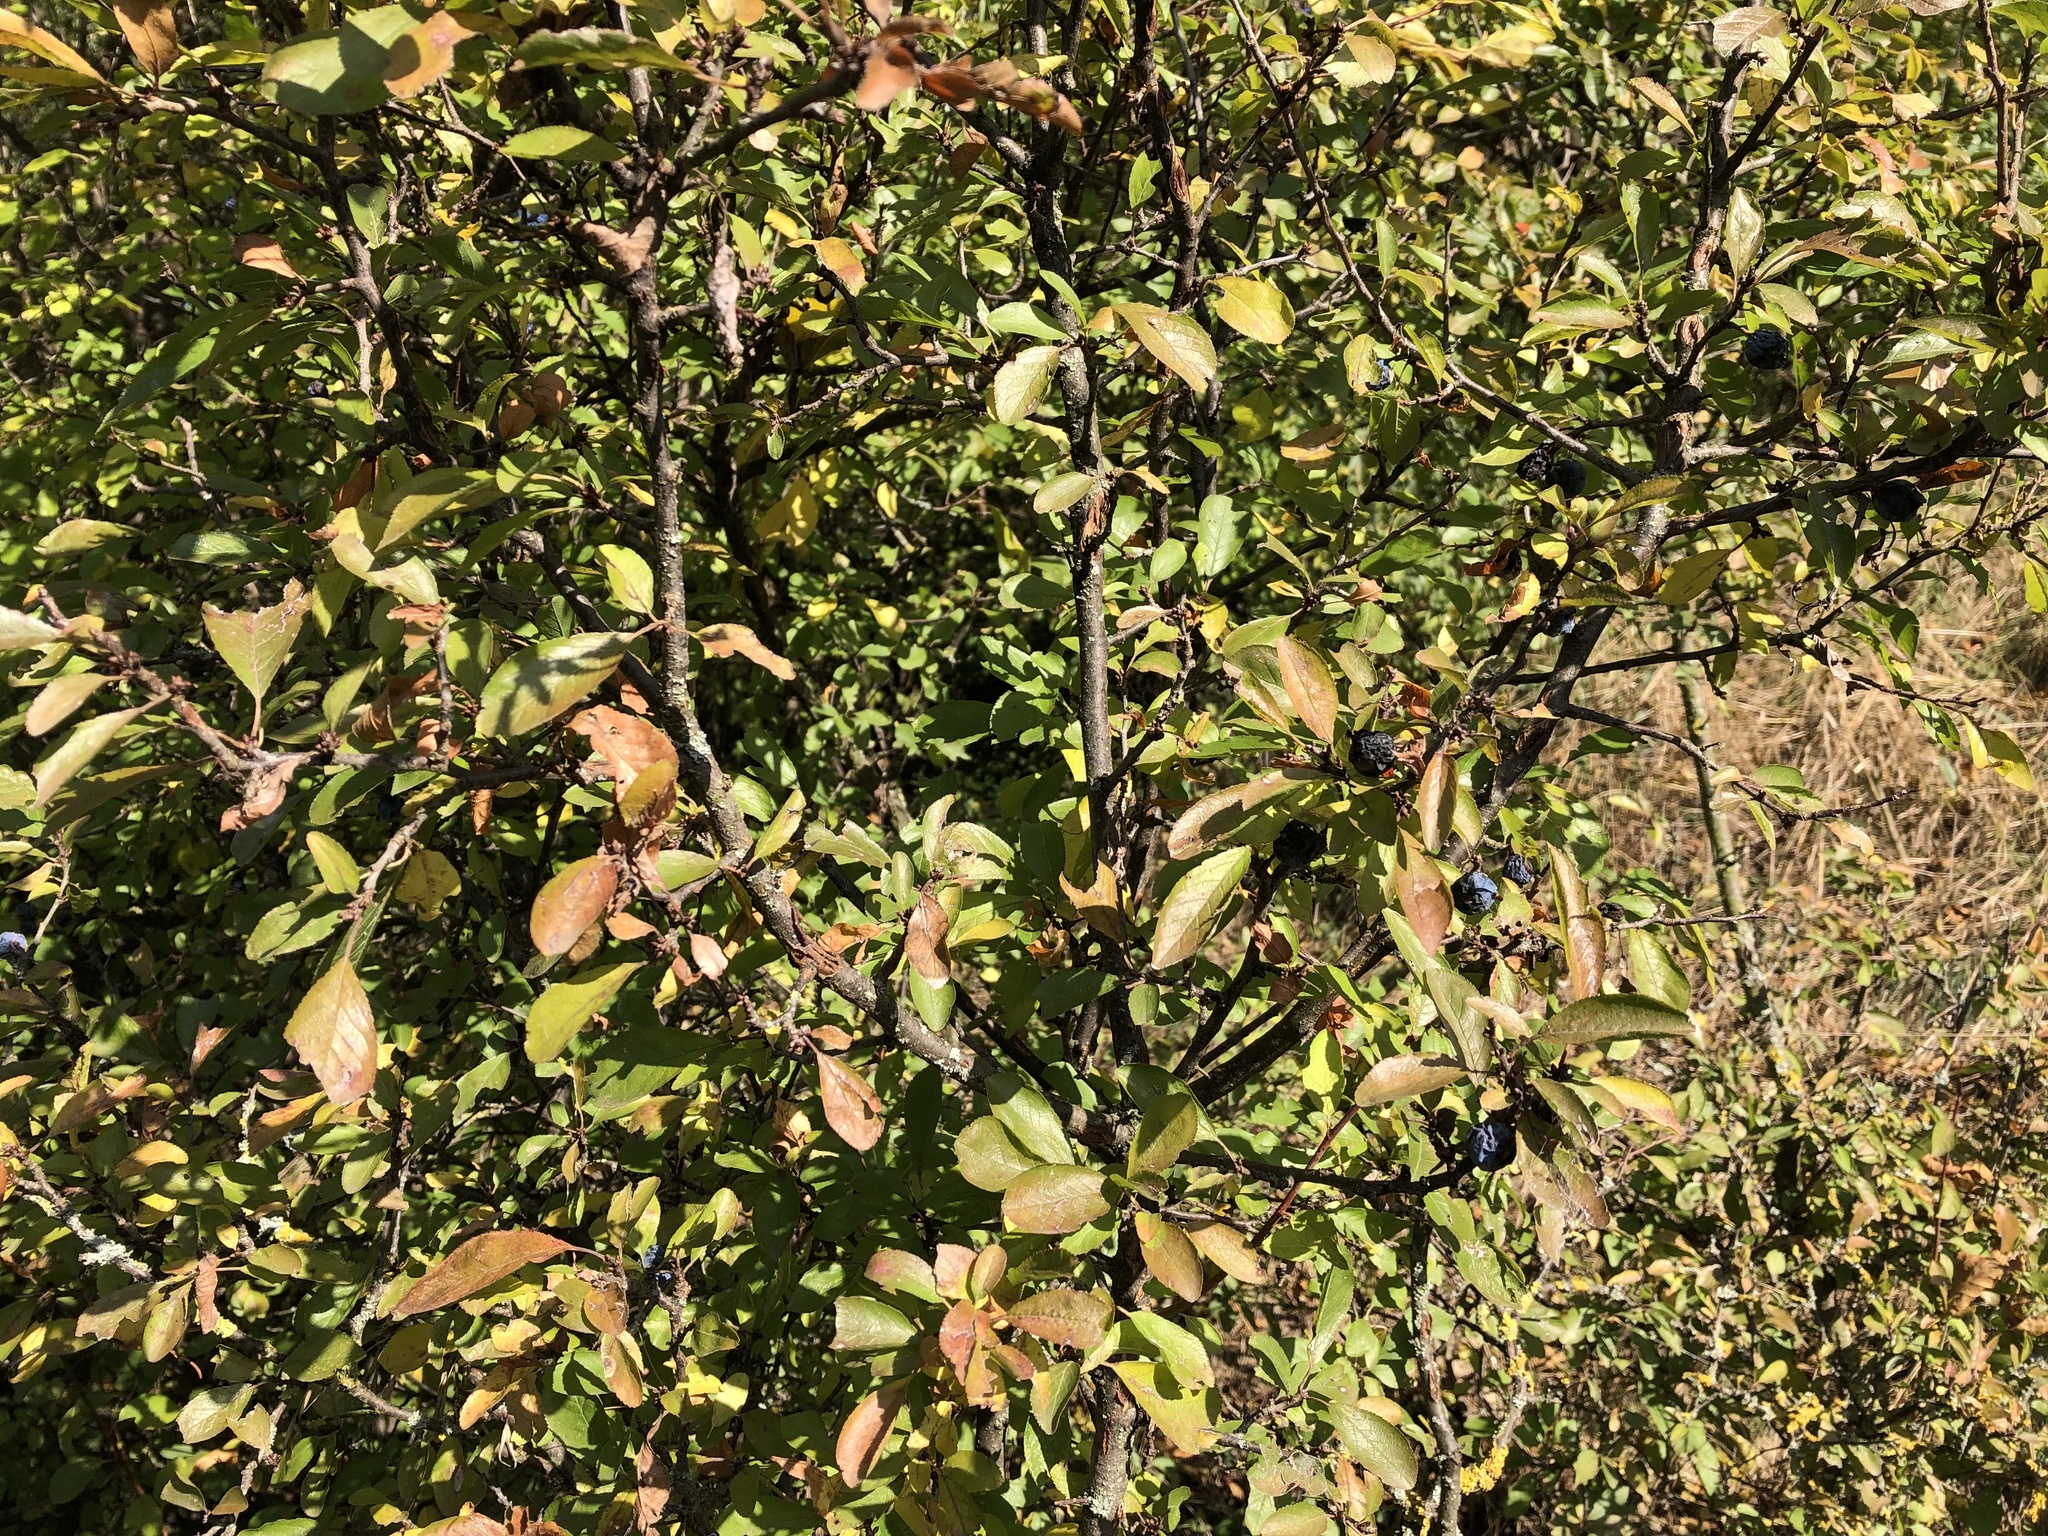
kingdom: Plantae
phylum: Tracheophyta
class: Magnoliopsida
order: Rosales
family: Rosaceae
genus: Prunus
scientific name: Prunus spinosa
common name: Blackthorn
